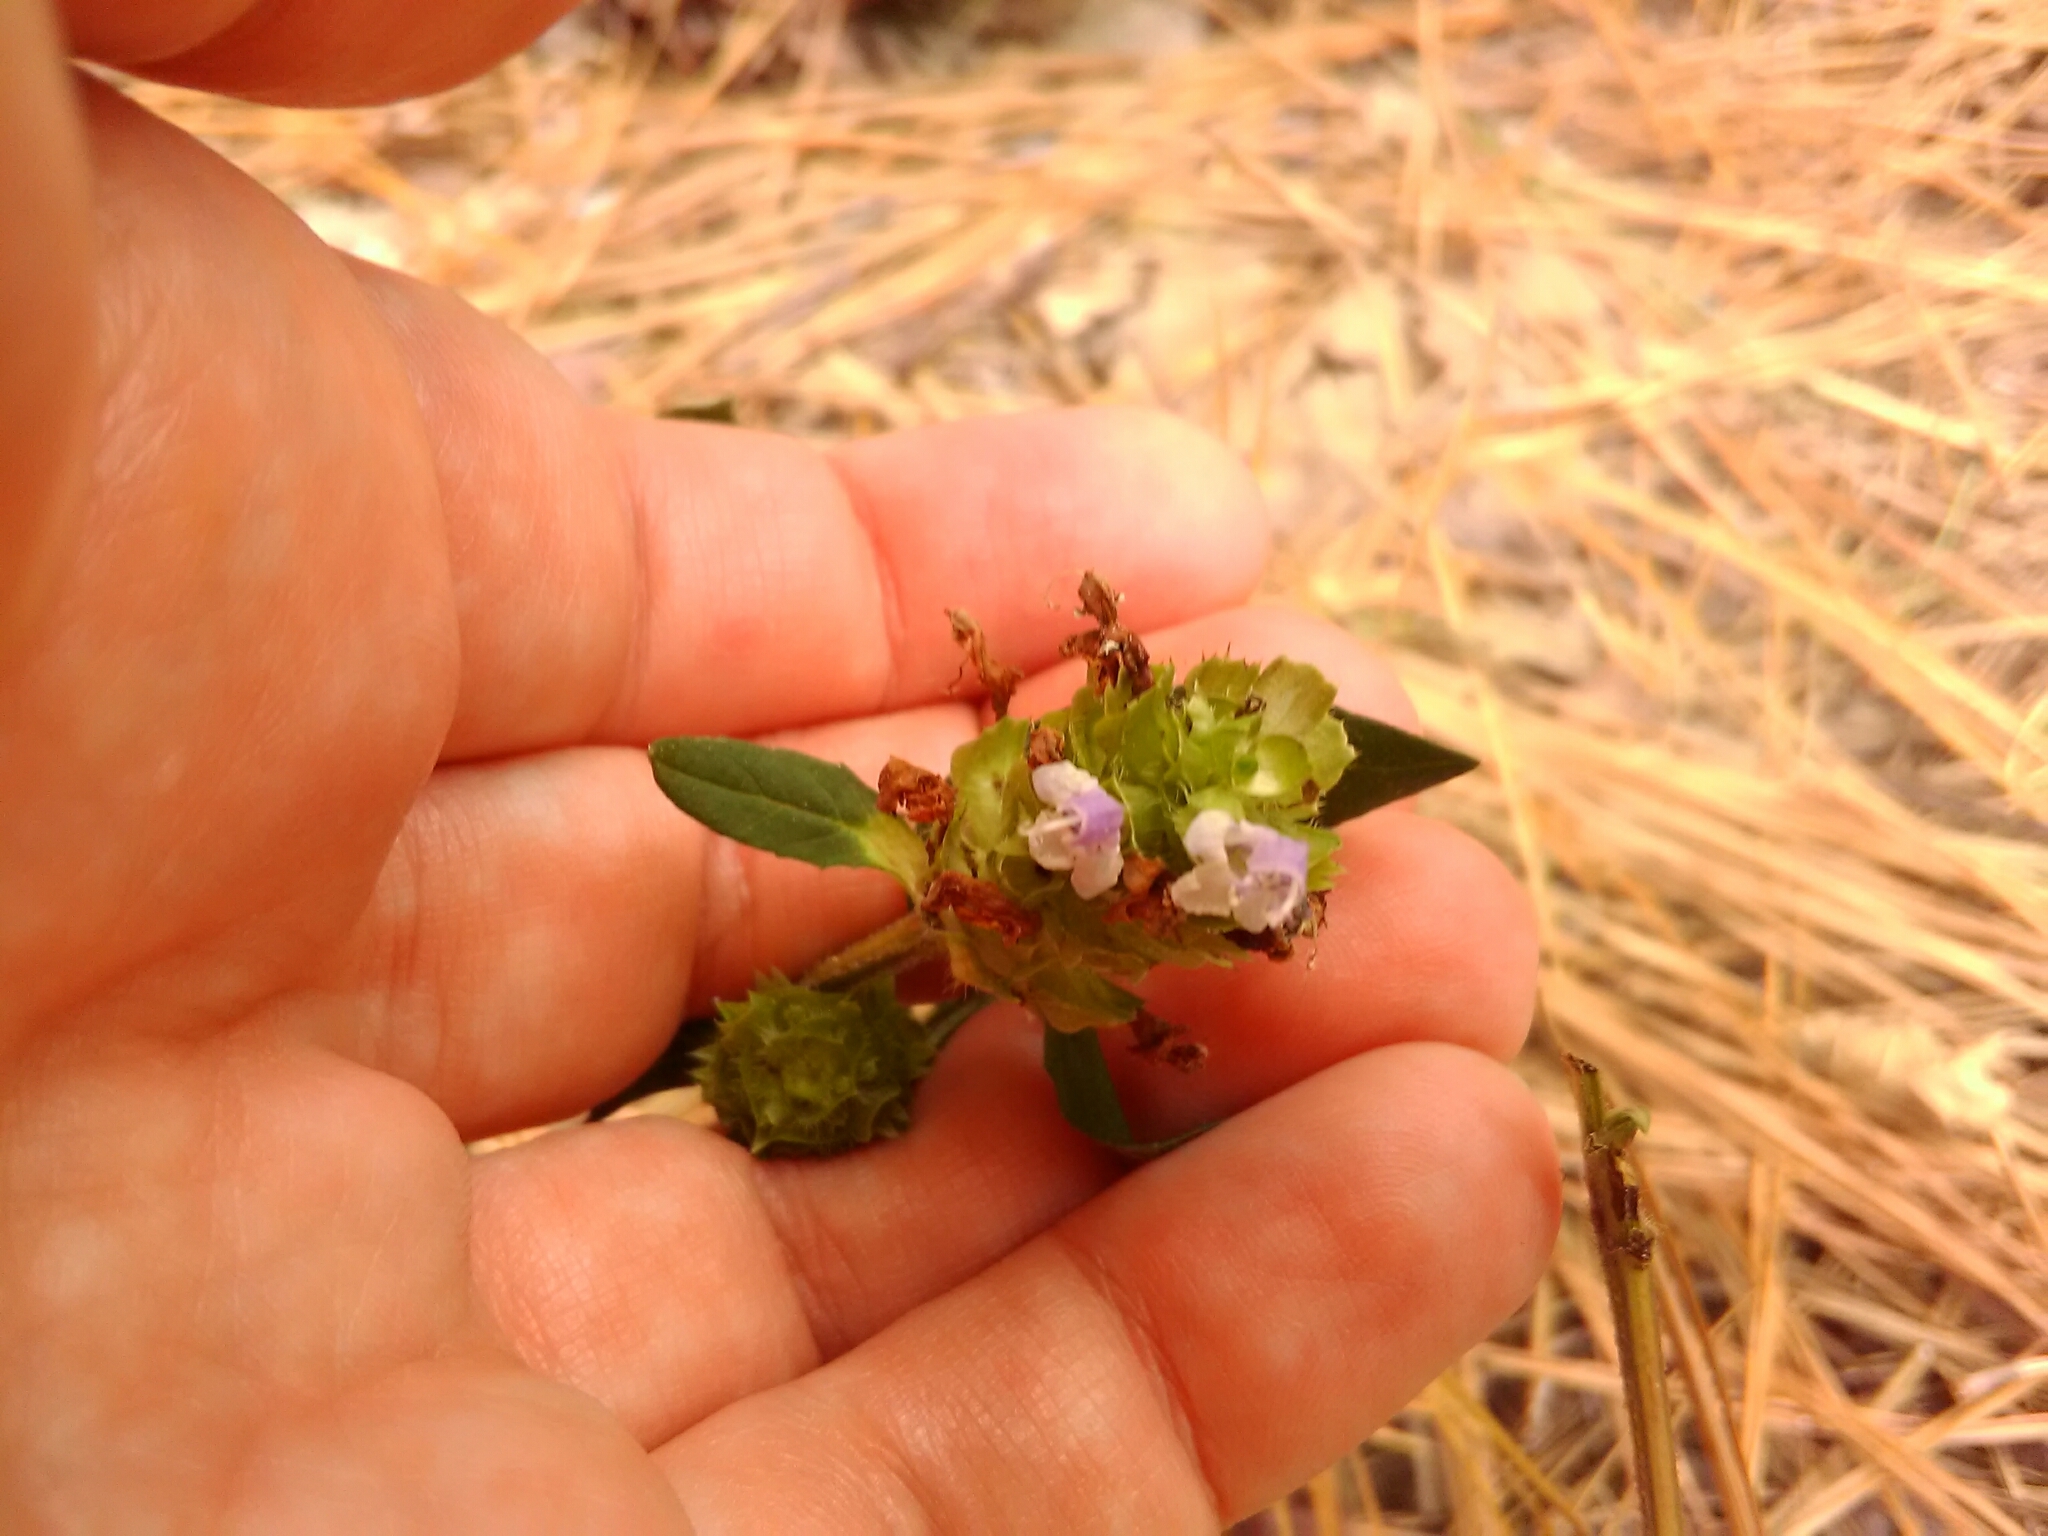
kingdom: Plantae
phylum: Tracheophyta
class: Magnoliopsida
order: Lamiales
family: Lamiaceae
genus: Prunella
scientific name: Prunella vulgaris
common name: Heal-all
